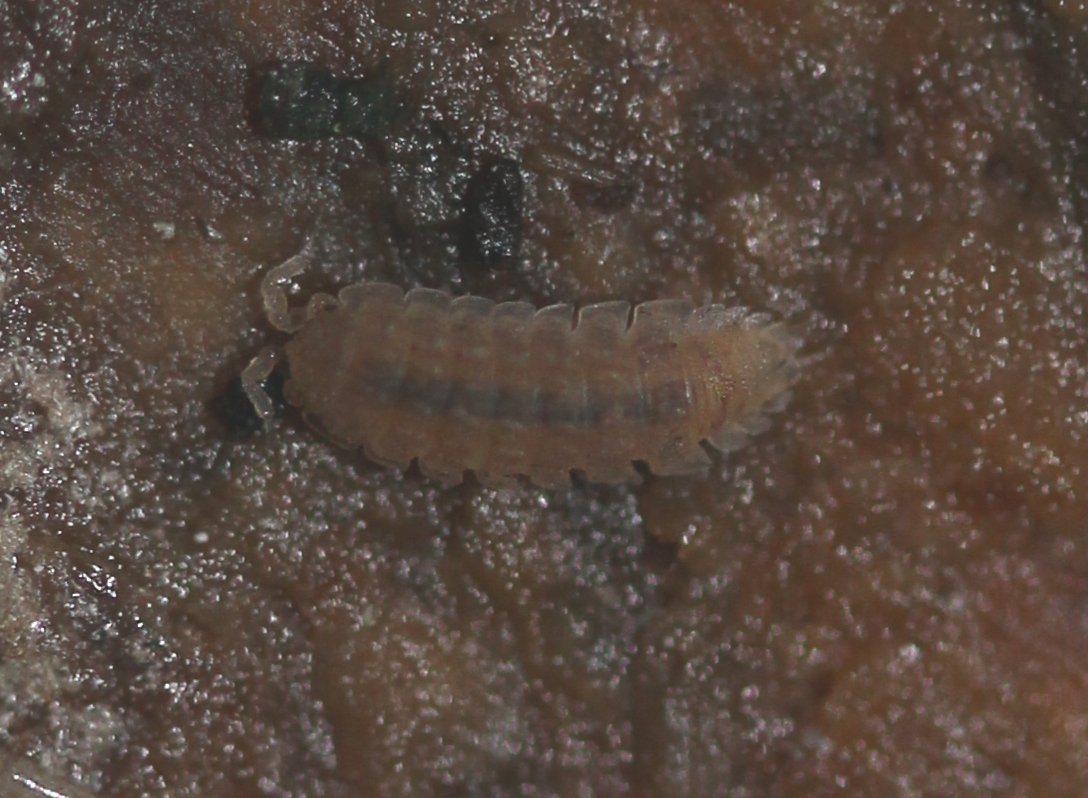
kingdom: Animalia
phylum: Arthropoda
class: Malacostraca
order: Isopoda
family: Trichoniscidae
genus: Haplophthalmus
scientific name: Haplophthalmus danicus
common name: Pillbug
